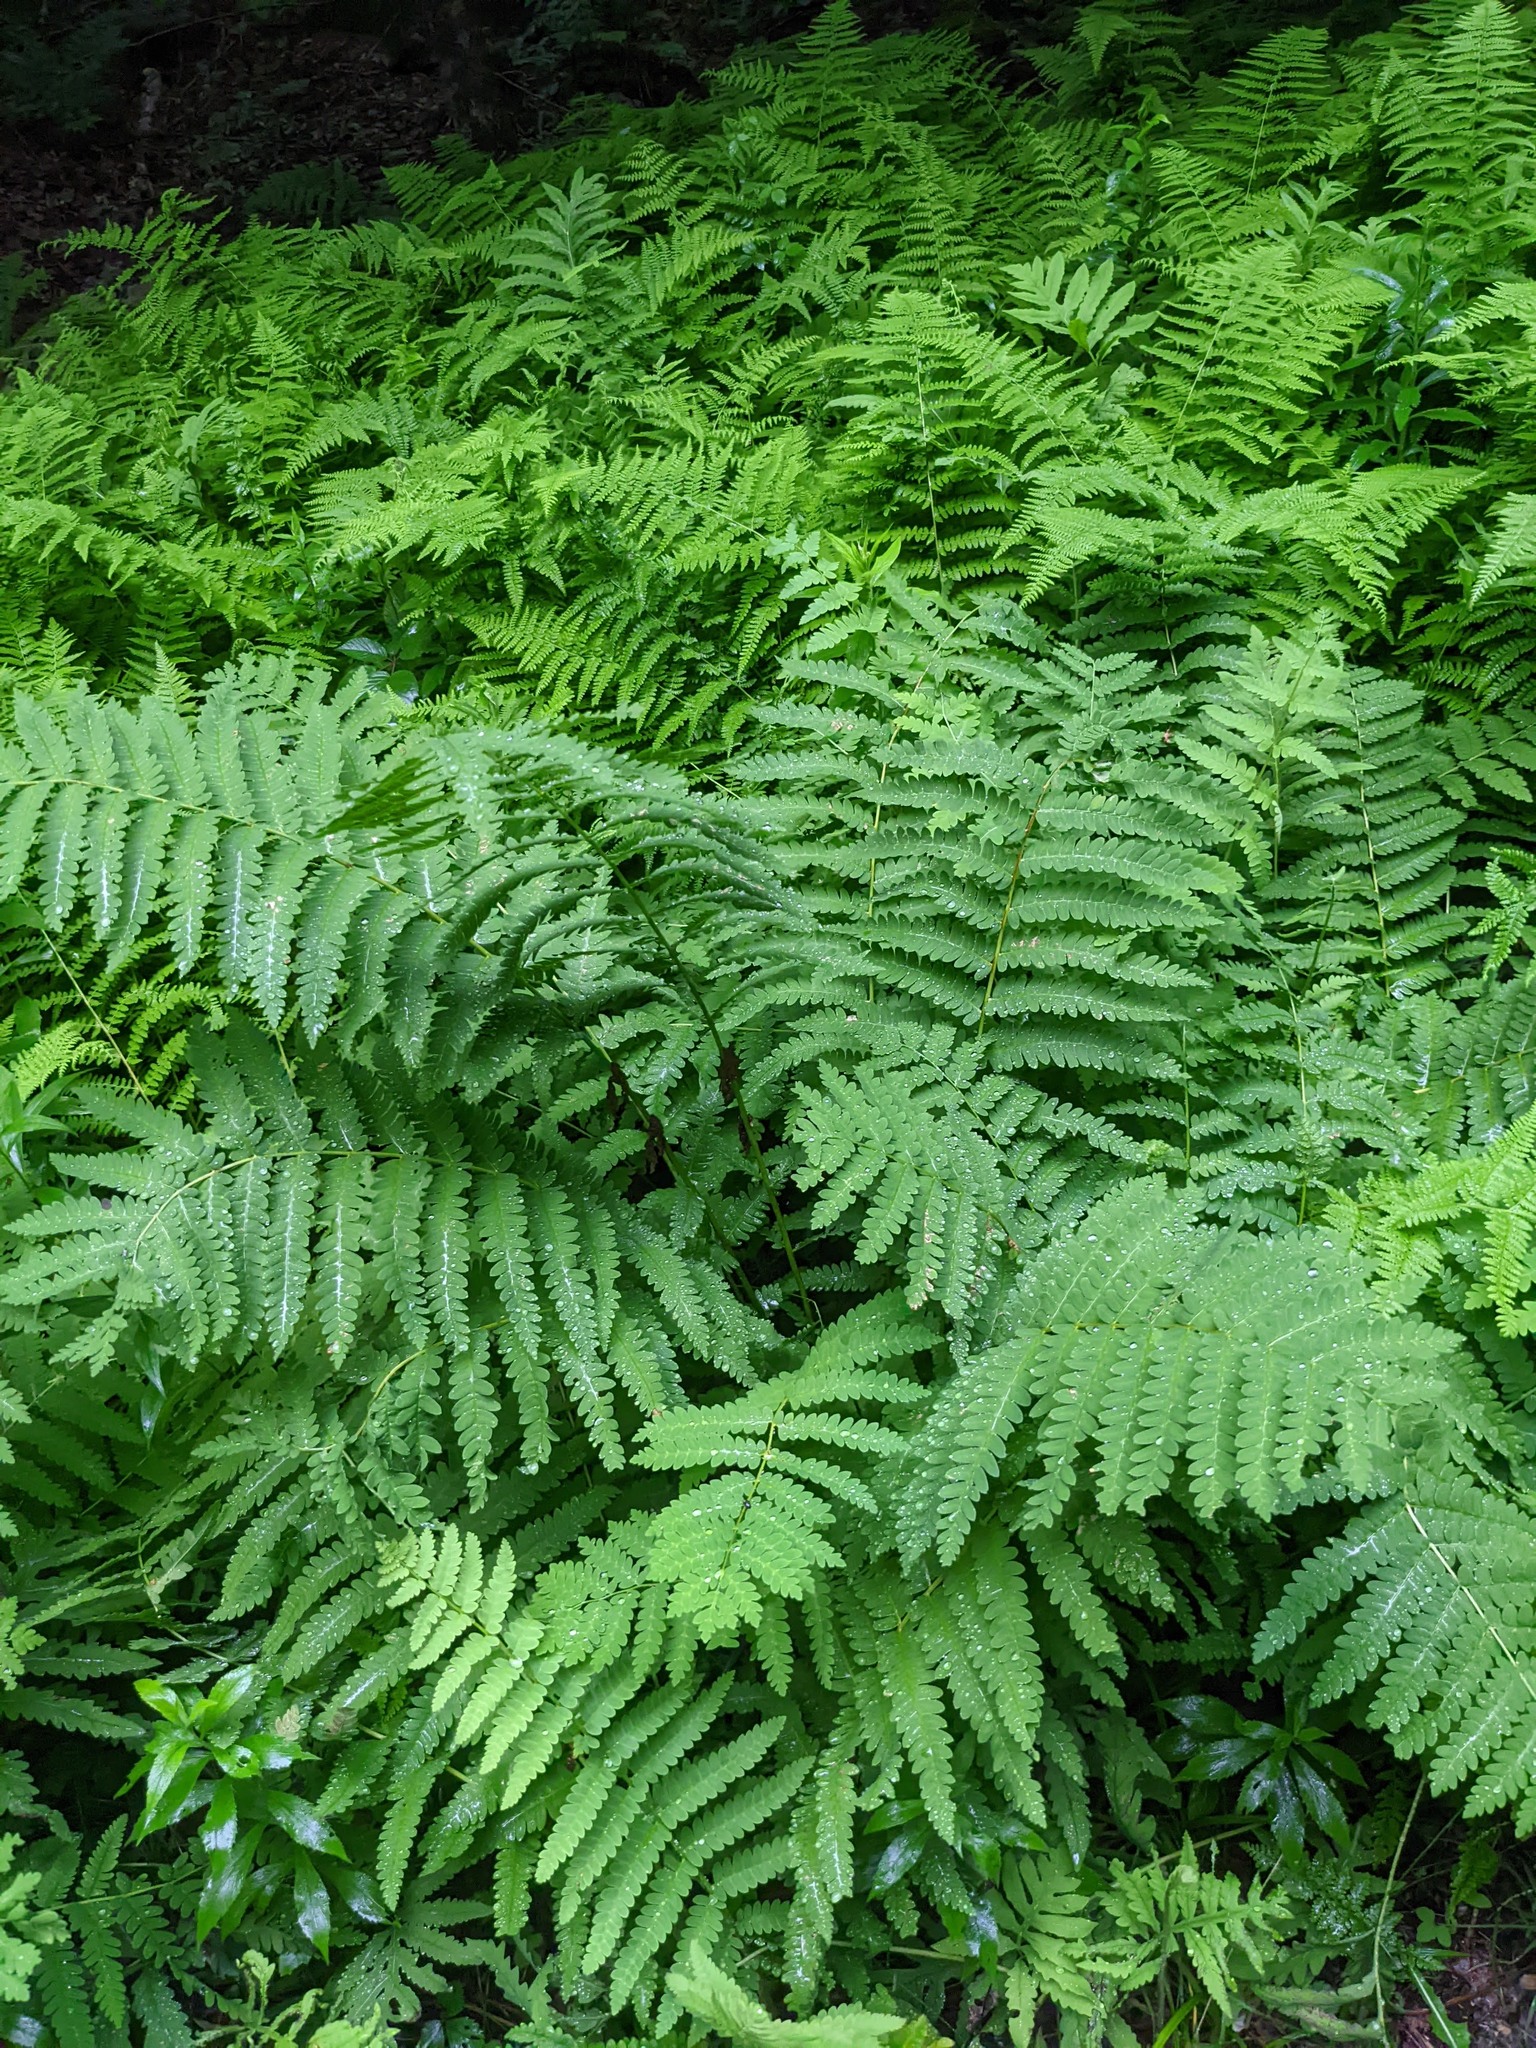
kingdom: Plantae
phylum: Tracheophyta
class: Polypodiopsida
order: Osmundales
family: Osmundaceae
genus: Claytosmunda
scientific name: Claytosmunda claytoniana
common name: Clayton's fern
